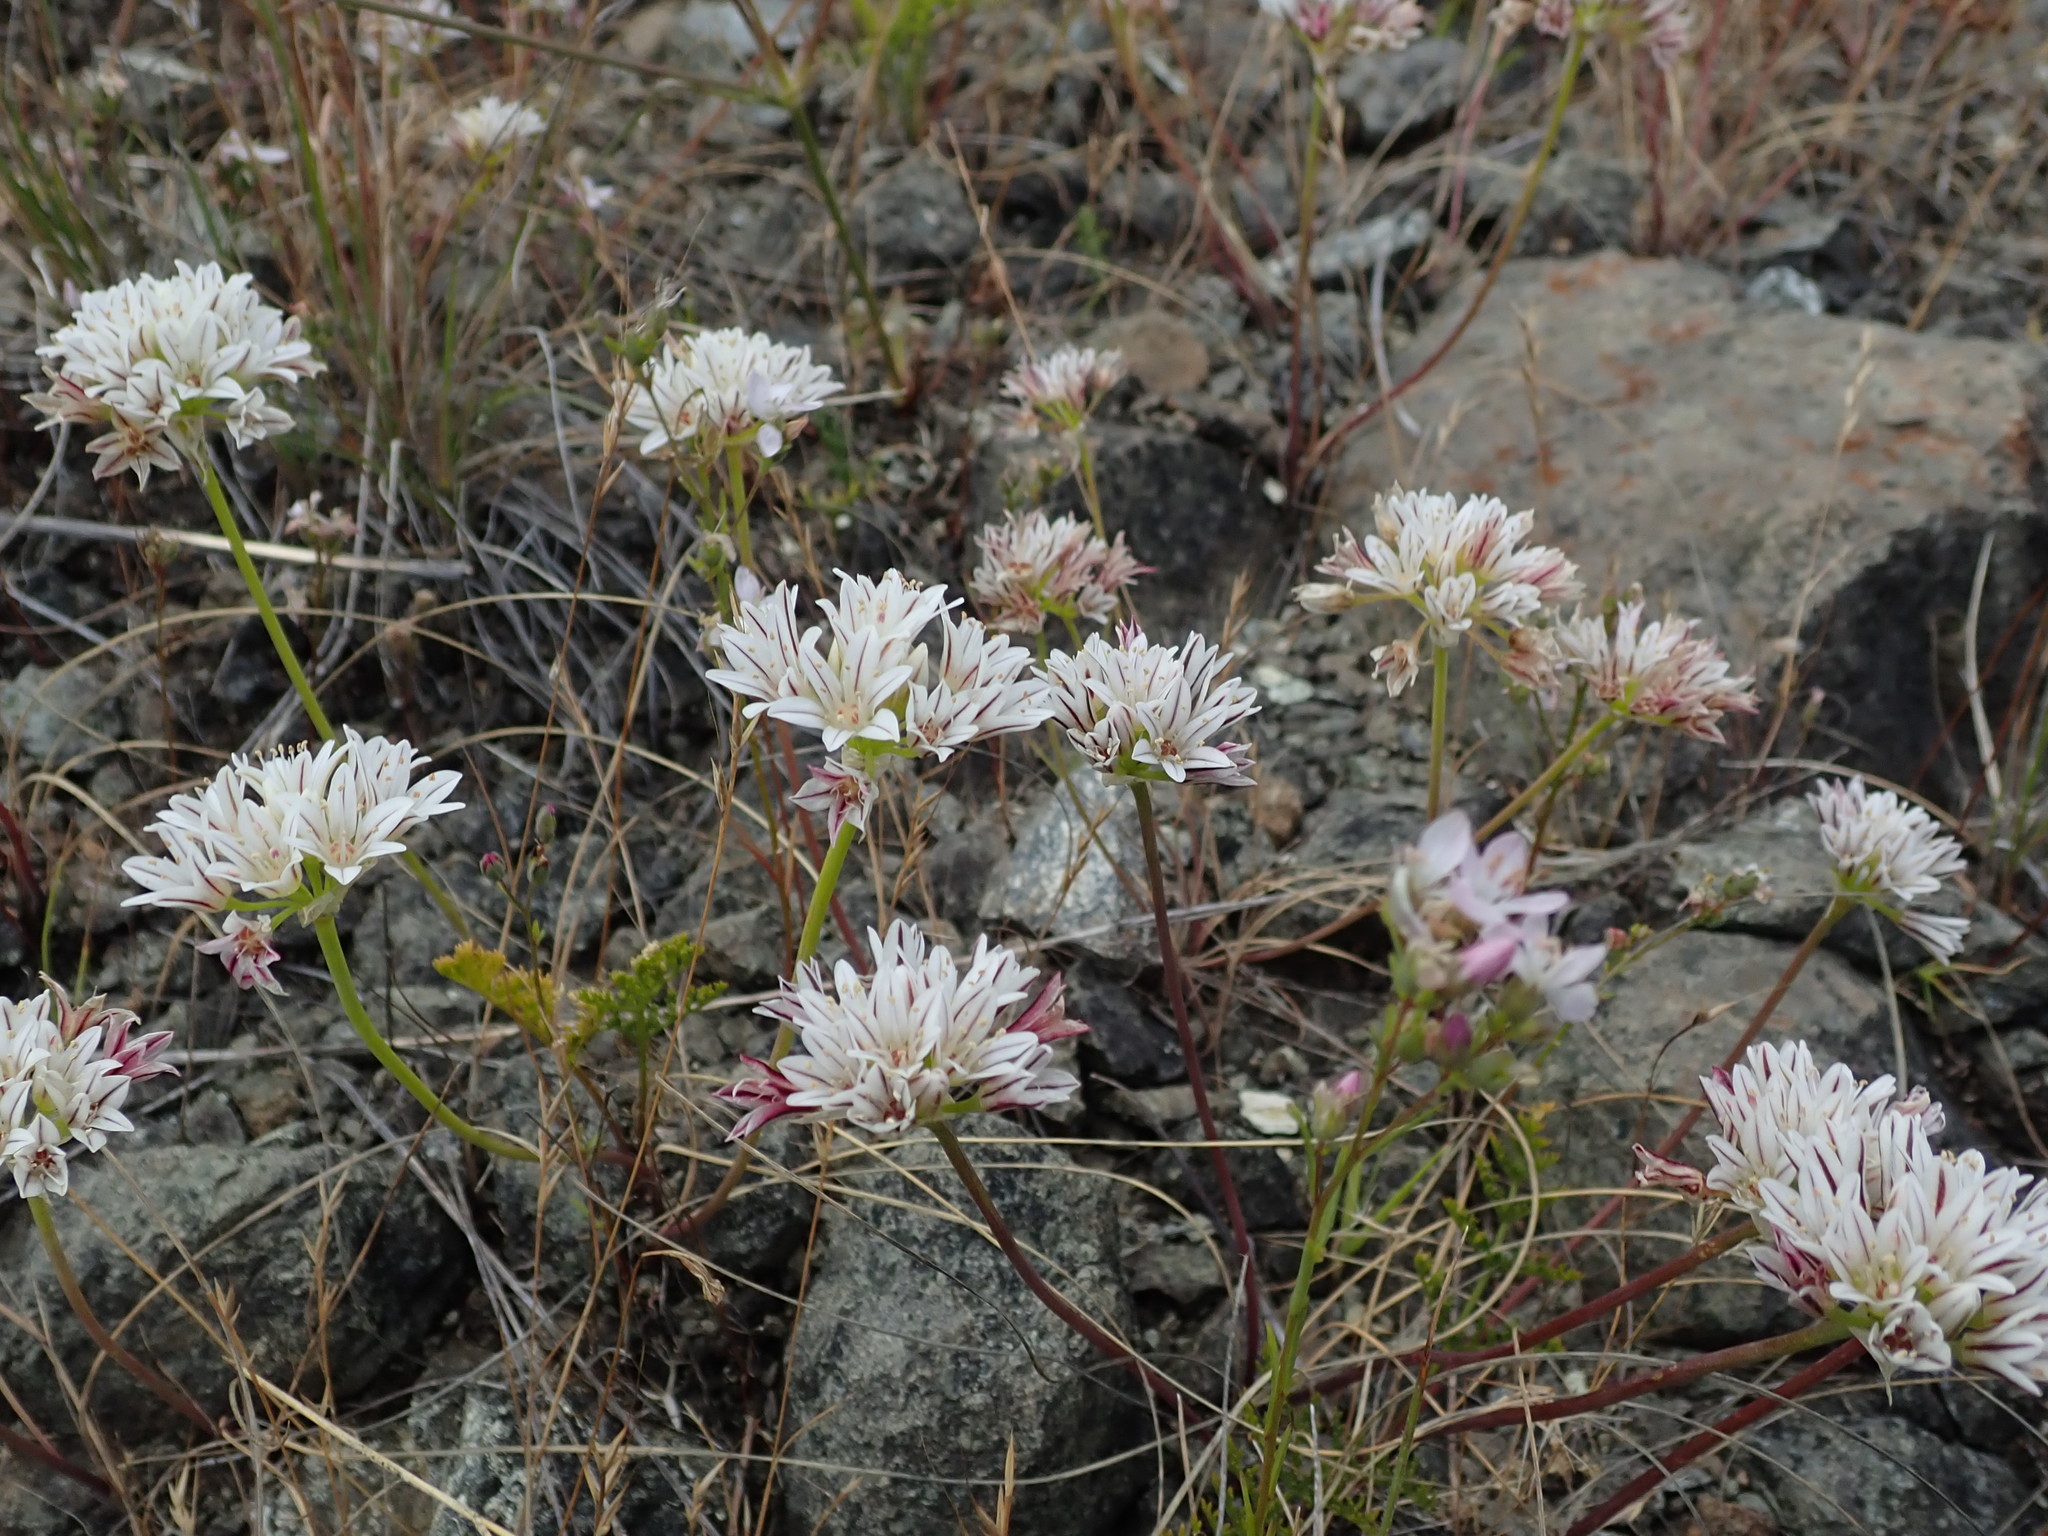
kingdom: Plantae
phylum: Tracheophyta
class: Liliopsida
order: Asparagales
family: Amaryllidaceae
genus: Allium
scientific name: Allium lacunosum
